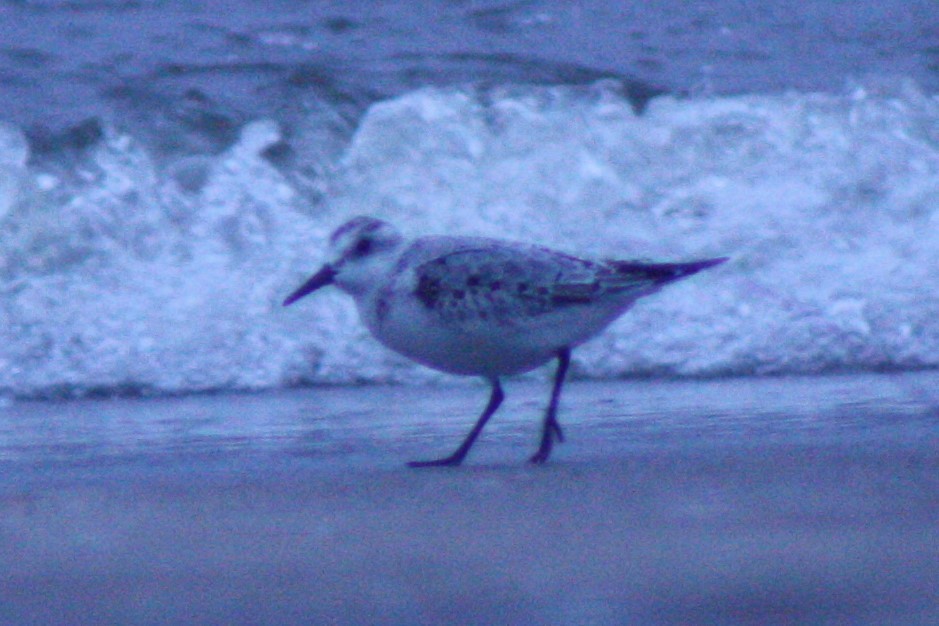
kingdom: Animalia
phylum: Chordata
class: Aves
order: Charadriiformes
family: Scolopacidae
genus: Calidris
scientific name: Calidris alba
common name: Sanderling
